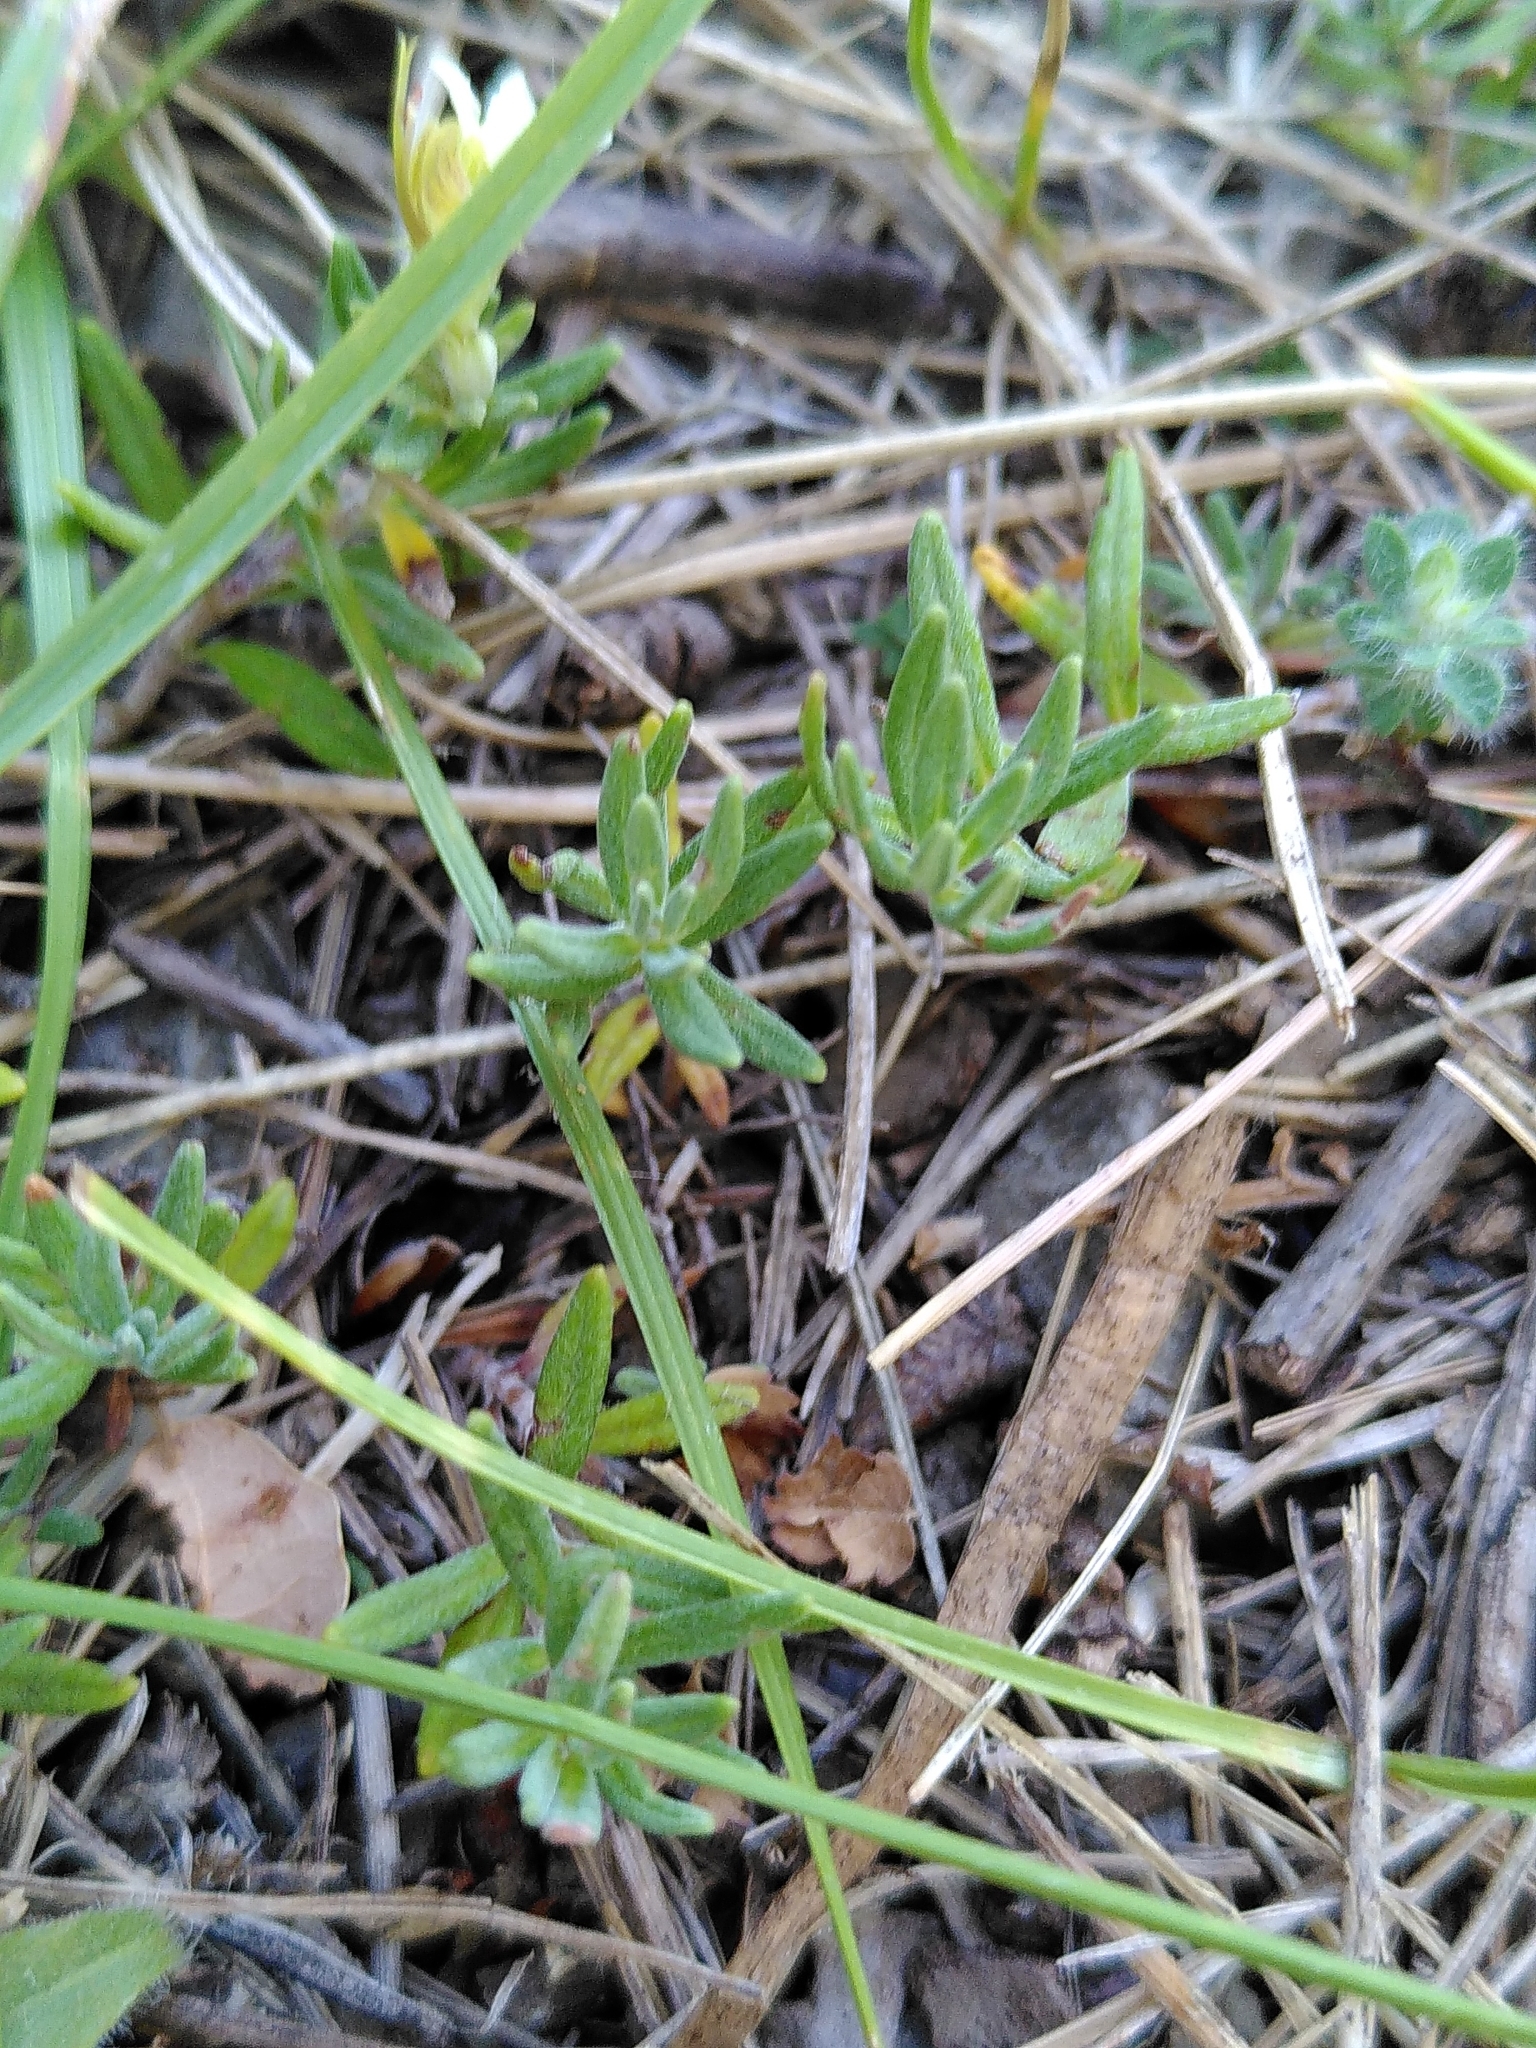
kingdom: Plantae
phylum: Tracheophyta
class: Magnoliopsida
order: Lamiales
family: Lamiaceae
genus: Teucrium
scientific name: Teucrium montanum
